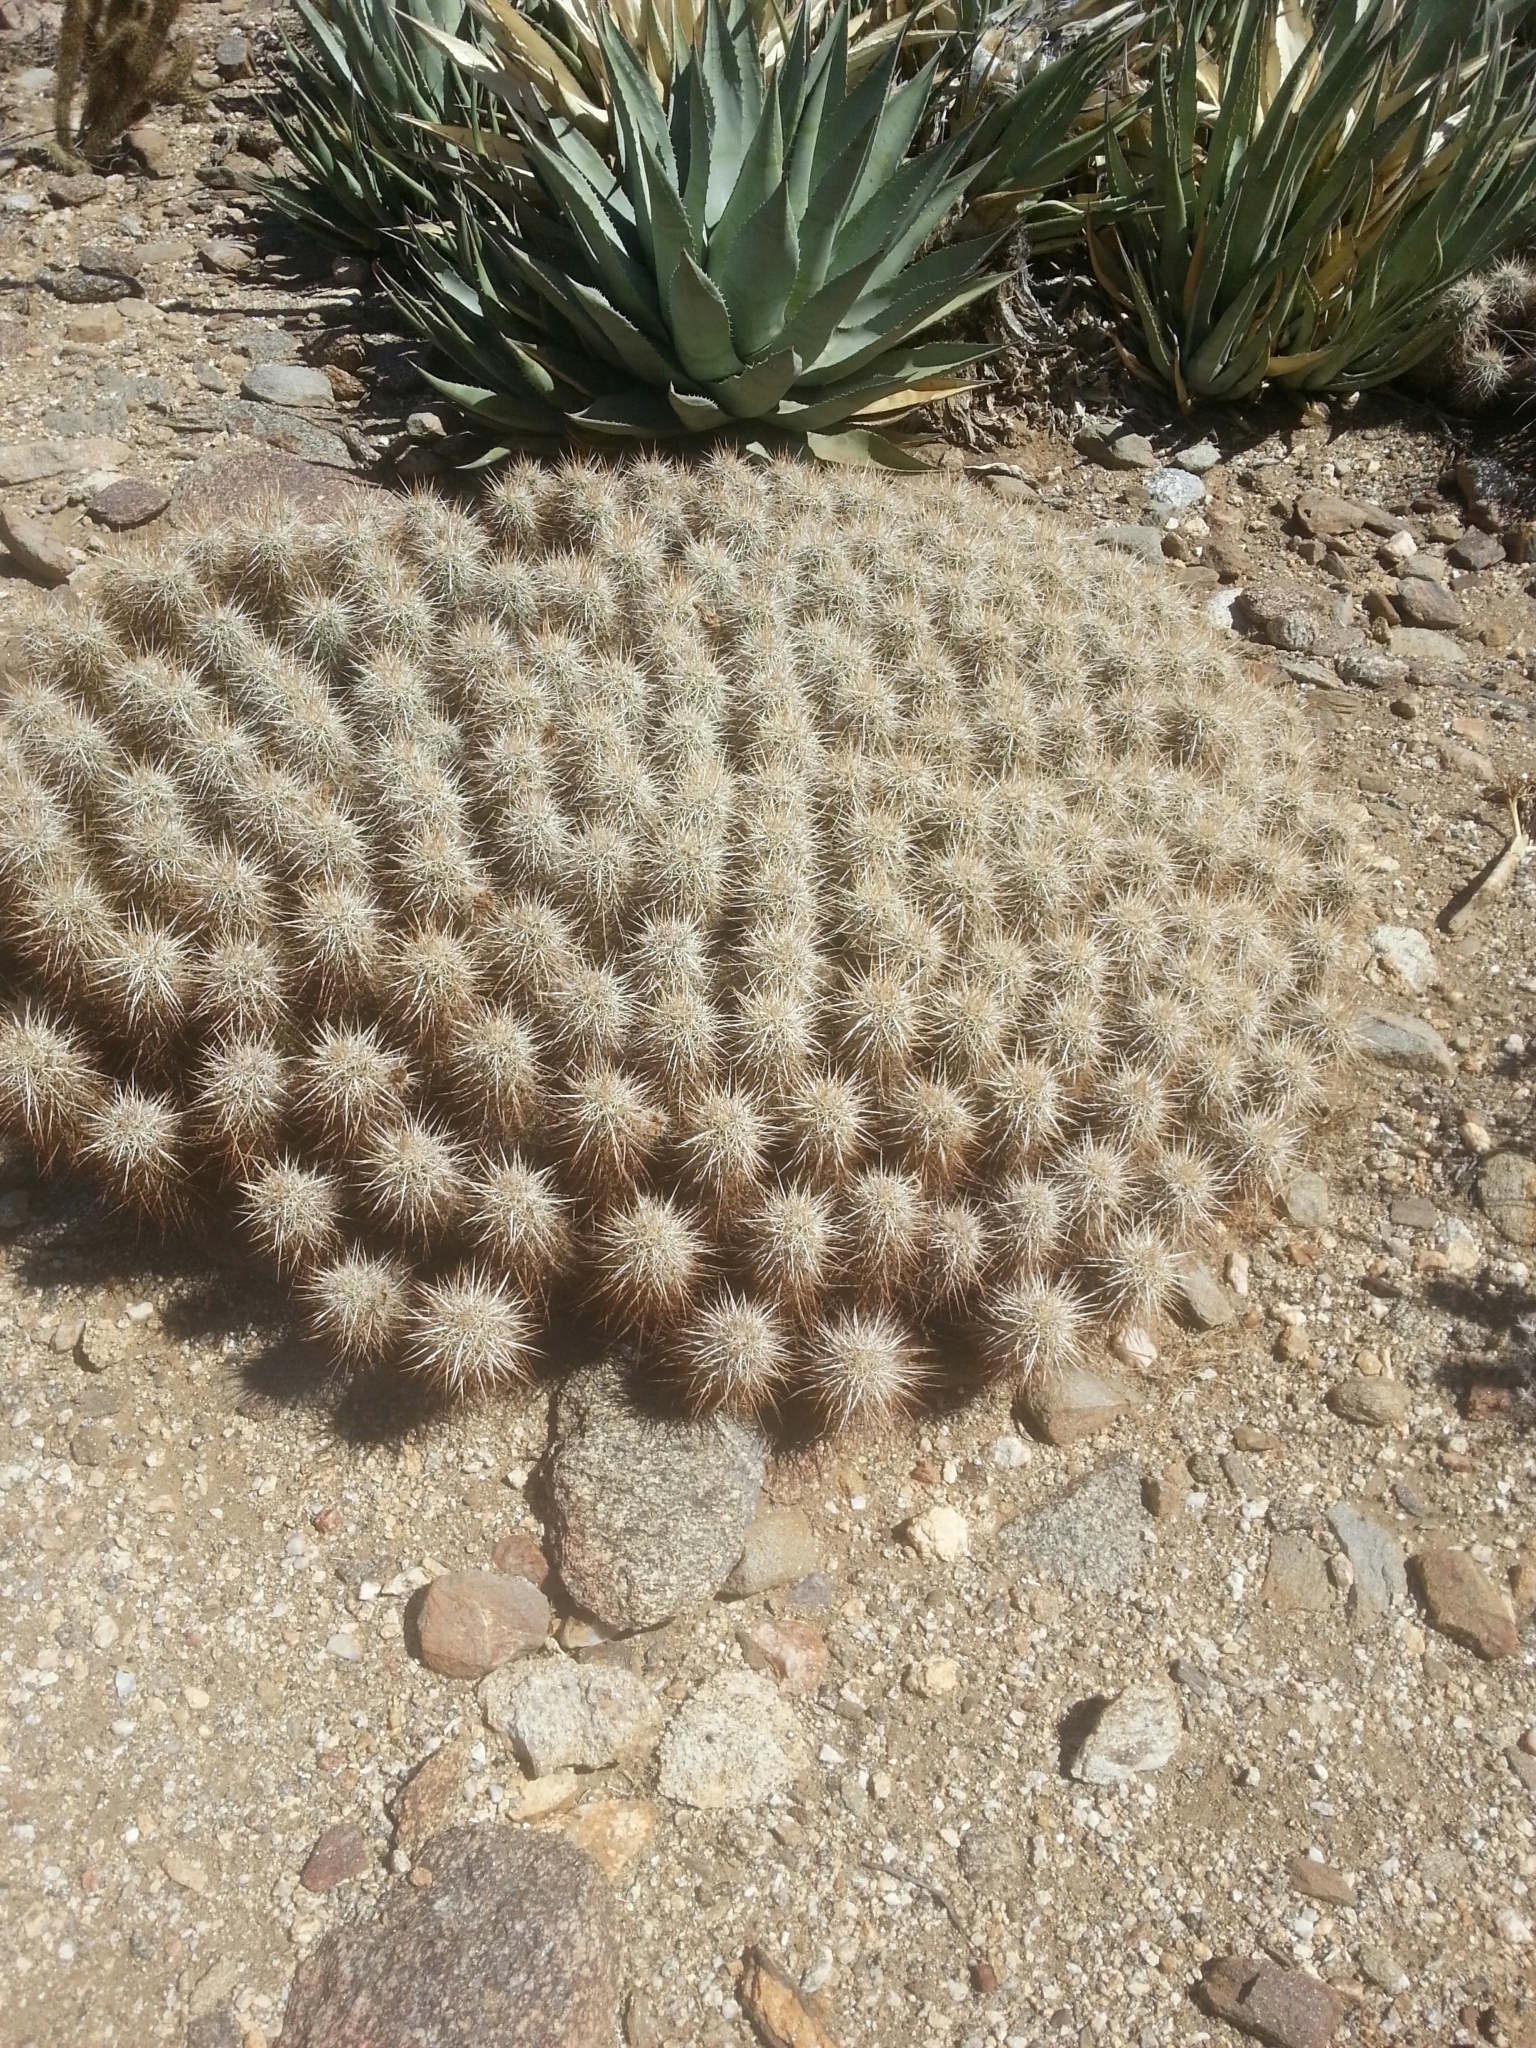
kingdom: Plantae
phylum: Tracheophyta
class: Magnoliopsida
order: Caryophyllales
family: Cactaceae
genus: Echinocereus
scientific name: Echinocereus engelmannii
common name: Engelmann's hedgehog cactus
